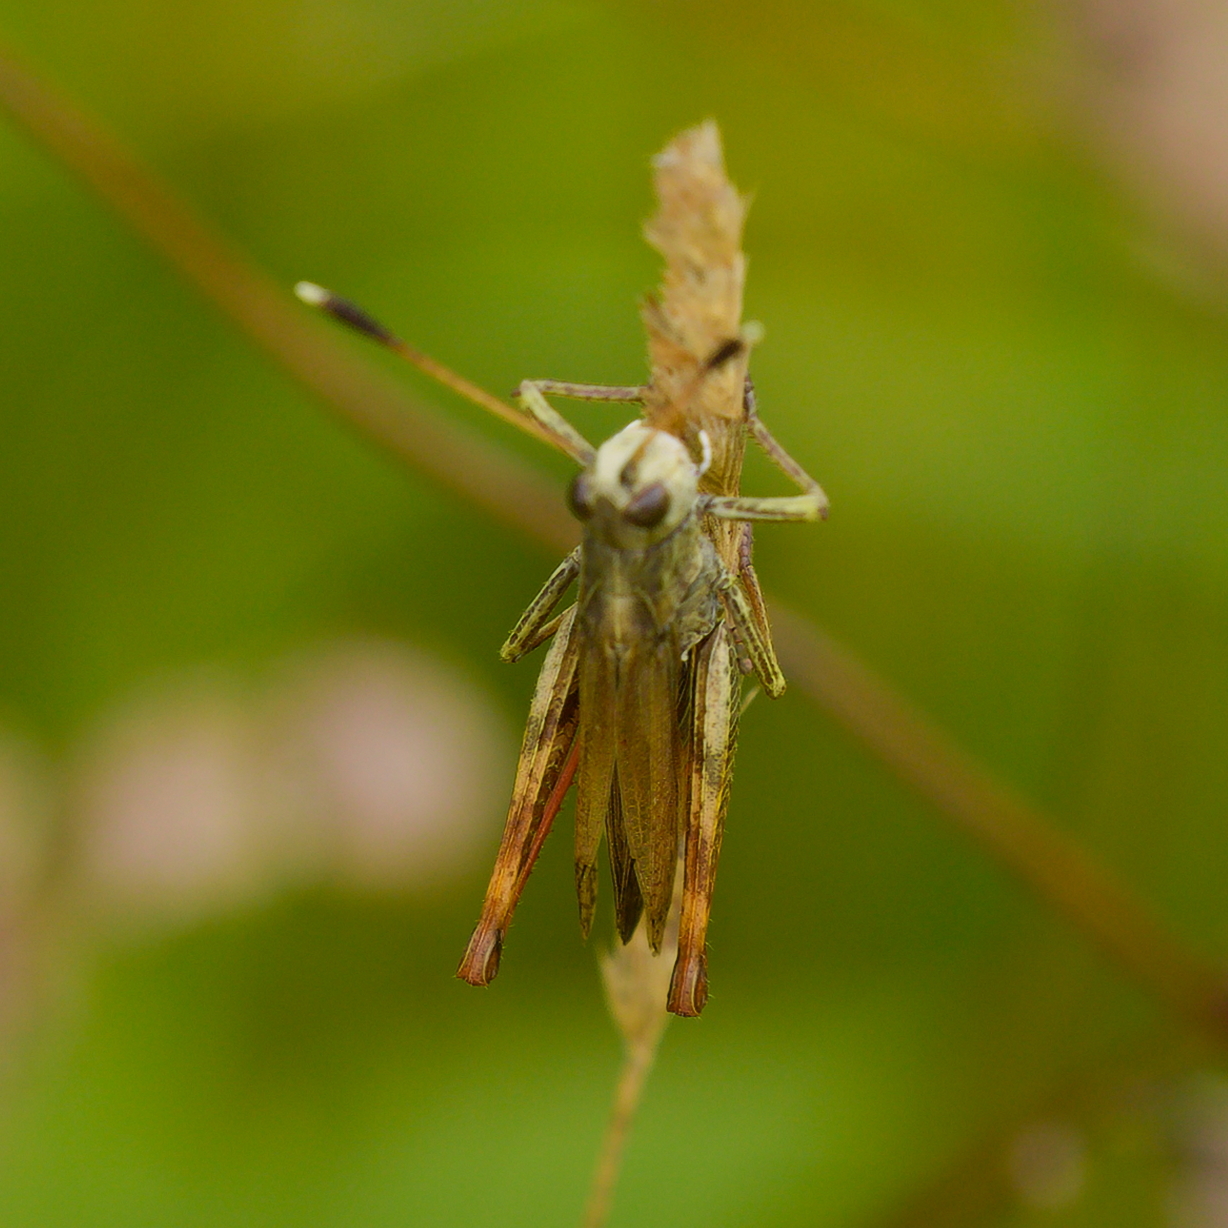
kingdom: Animalia
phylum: Arthropoda
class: Insecta
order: Orthoptera
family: Acrididae
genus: Gomphocerippus
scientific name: Gomphocerippus rufus
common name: Rufous grasshopper
